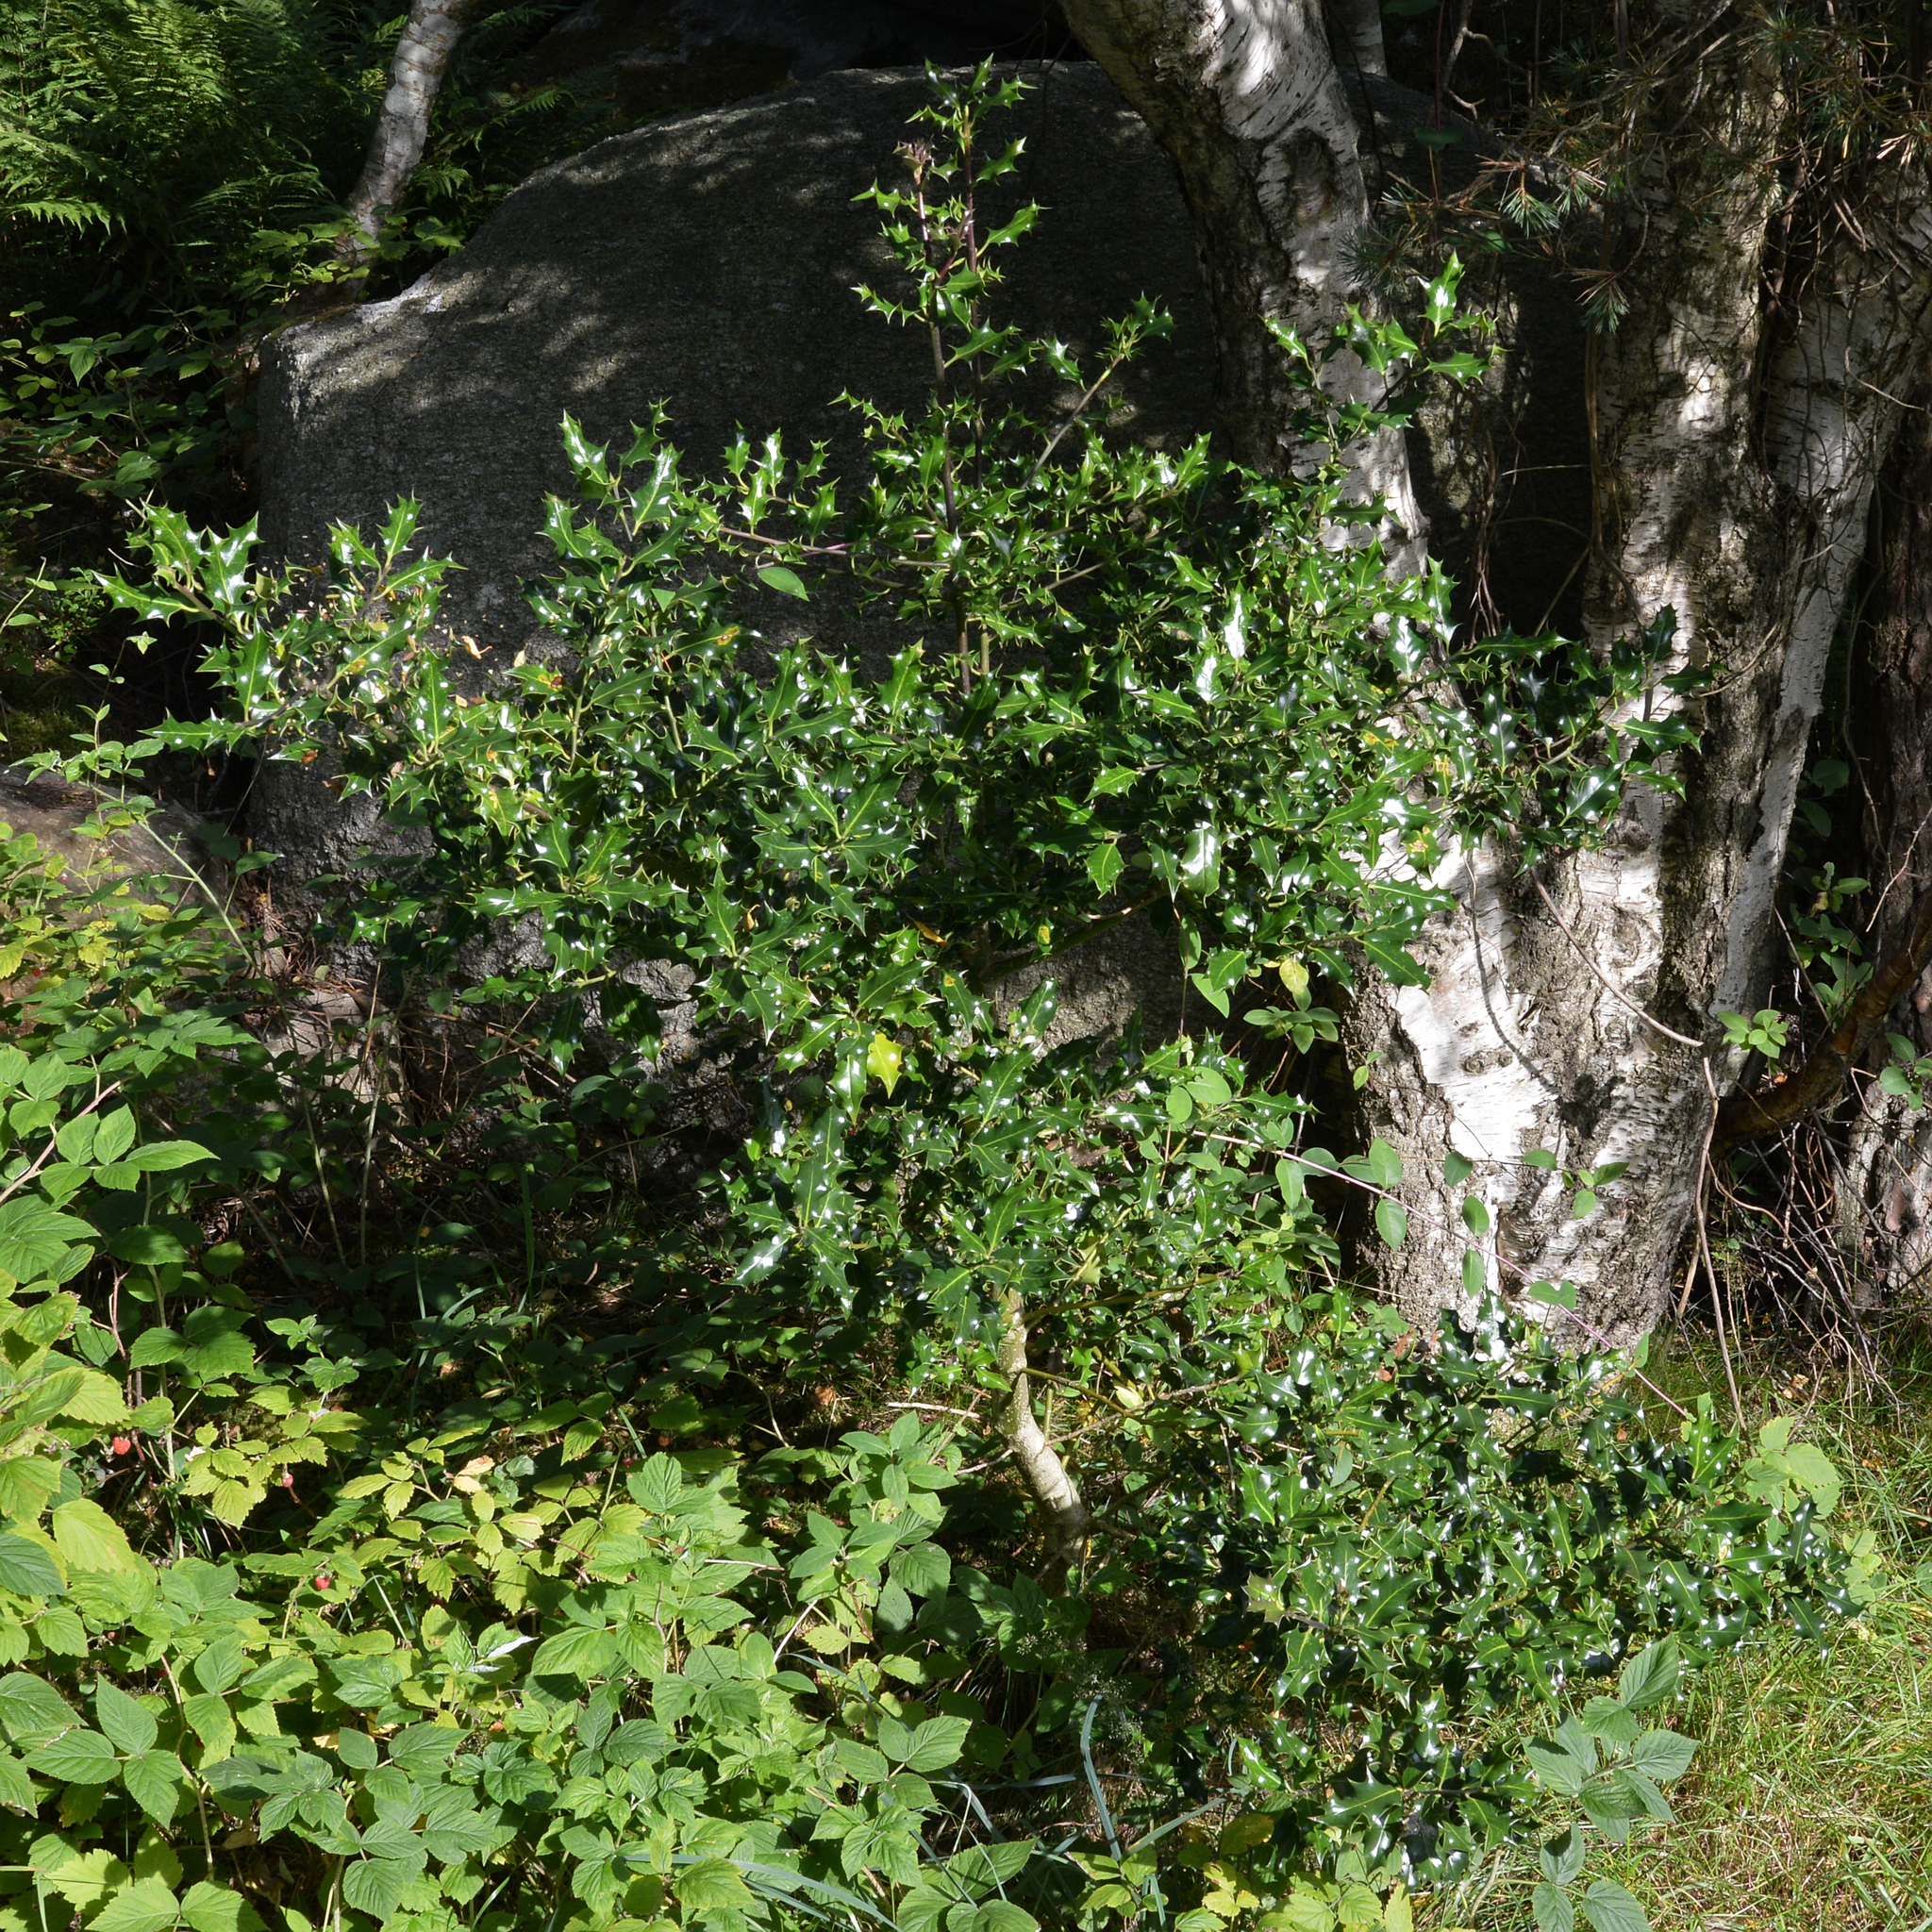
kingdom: Plantae
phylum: Tracheophyta
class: Magnoliopsida
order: Aquifoliales
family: Aquifoliaceae
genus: Ilex
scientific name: Ilex aquifolium
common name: English holly
